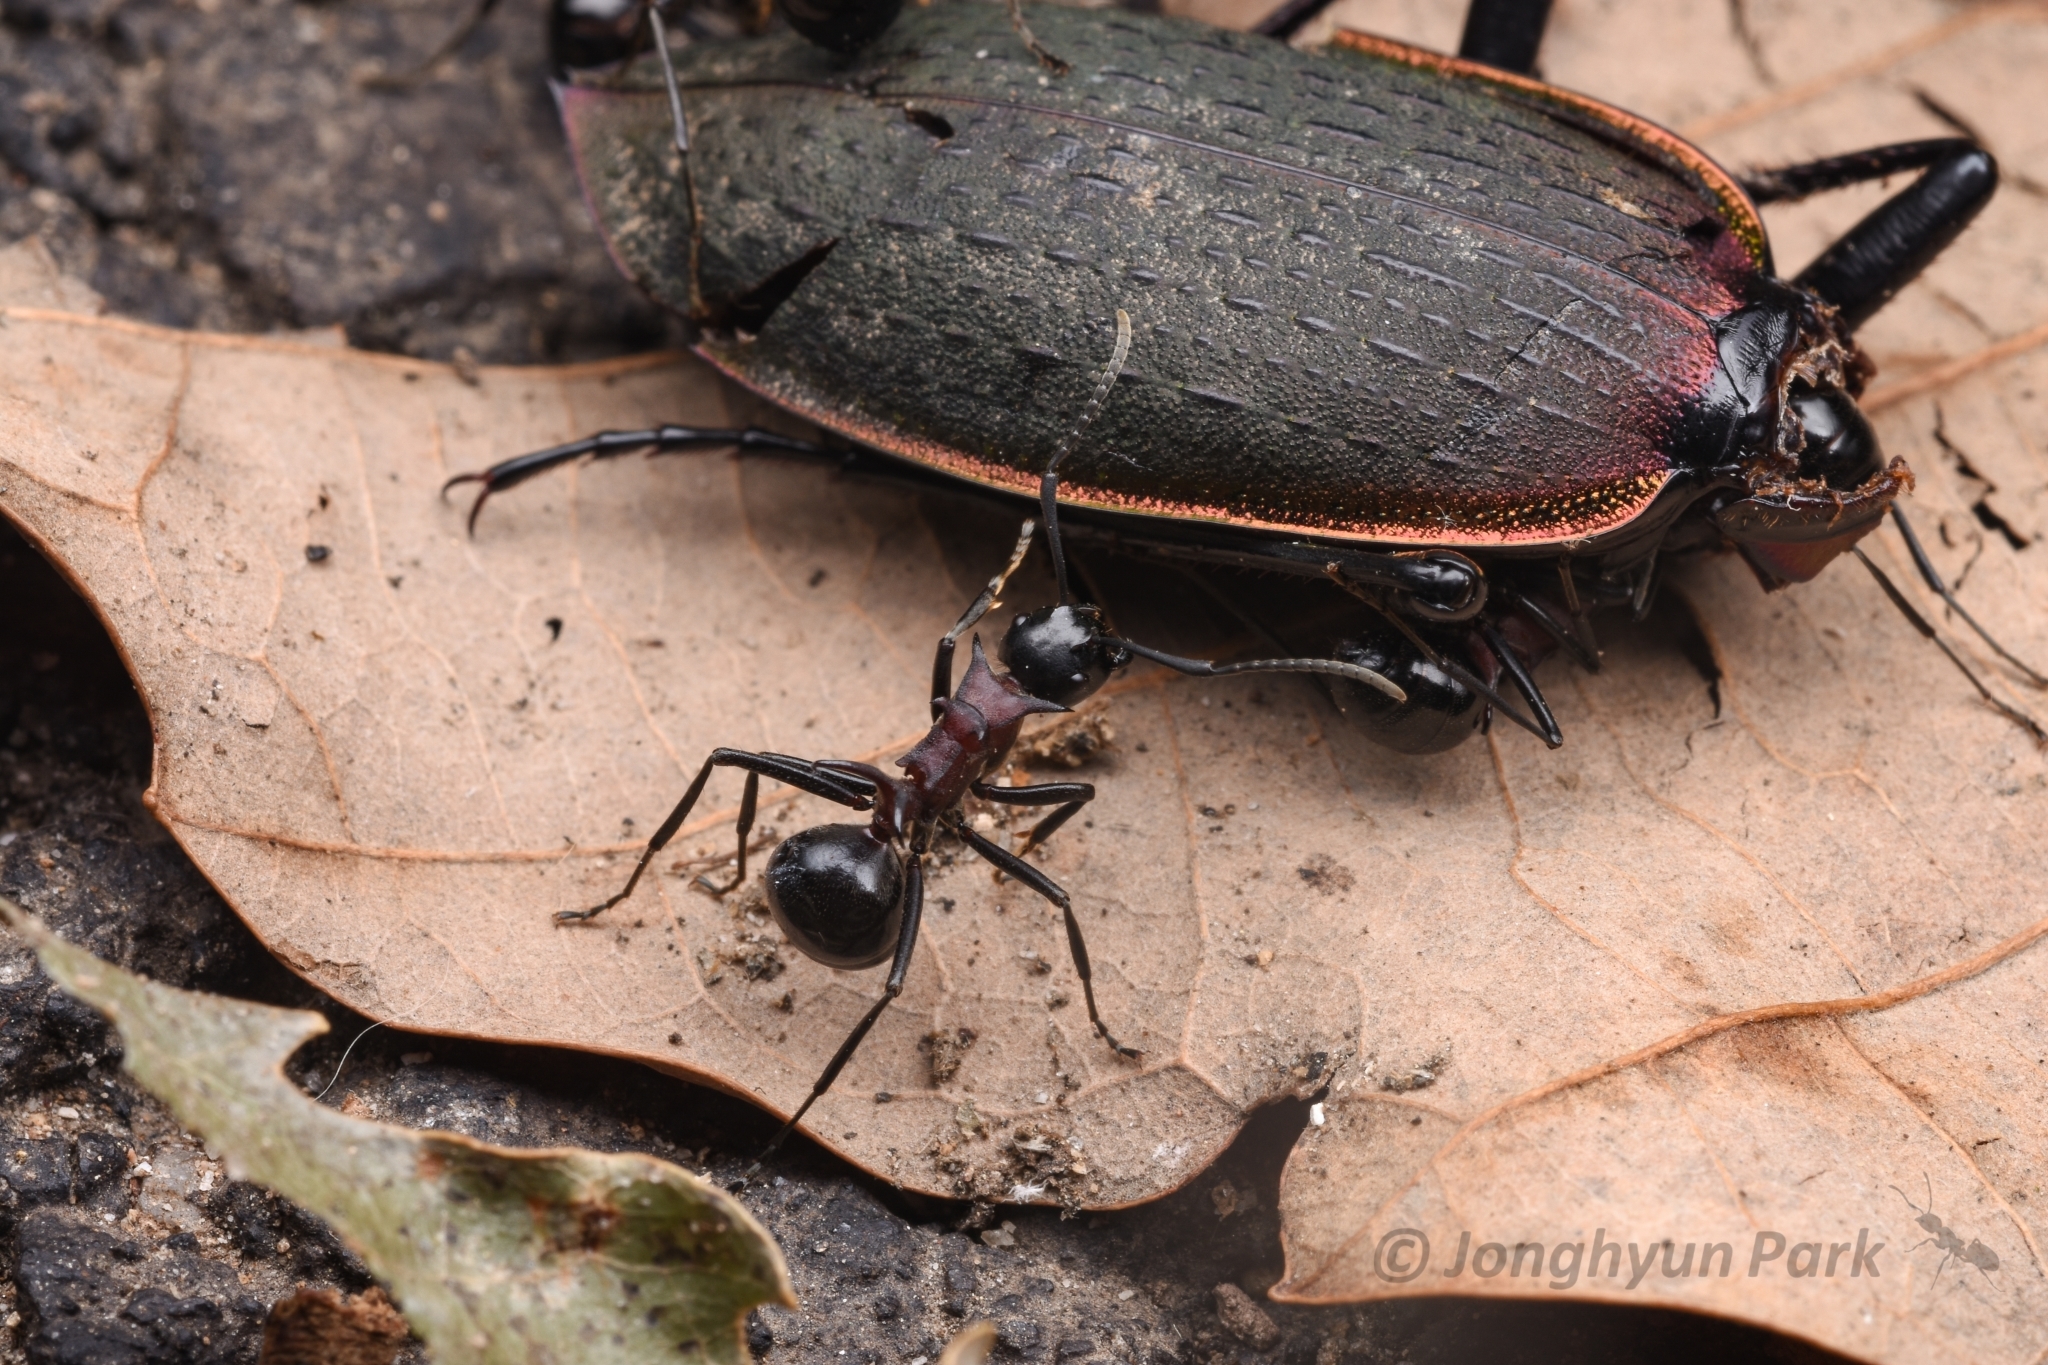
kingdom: Animalia
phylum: Arthropoda
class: Insecta
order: Hymenoptera
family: Formicidae
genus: Polyrhachis
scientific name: Polyrhachis lamellidens
